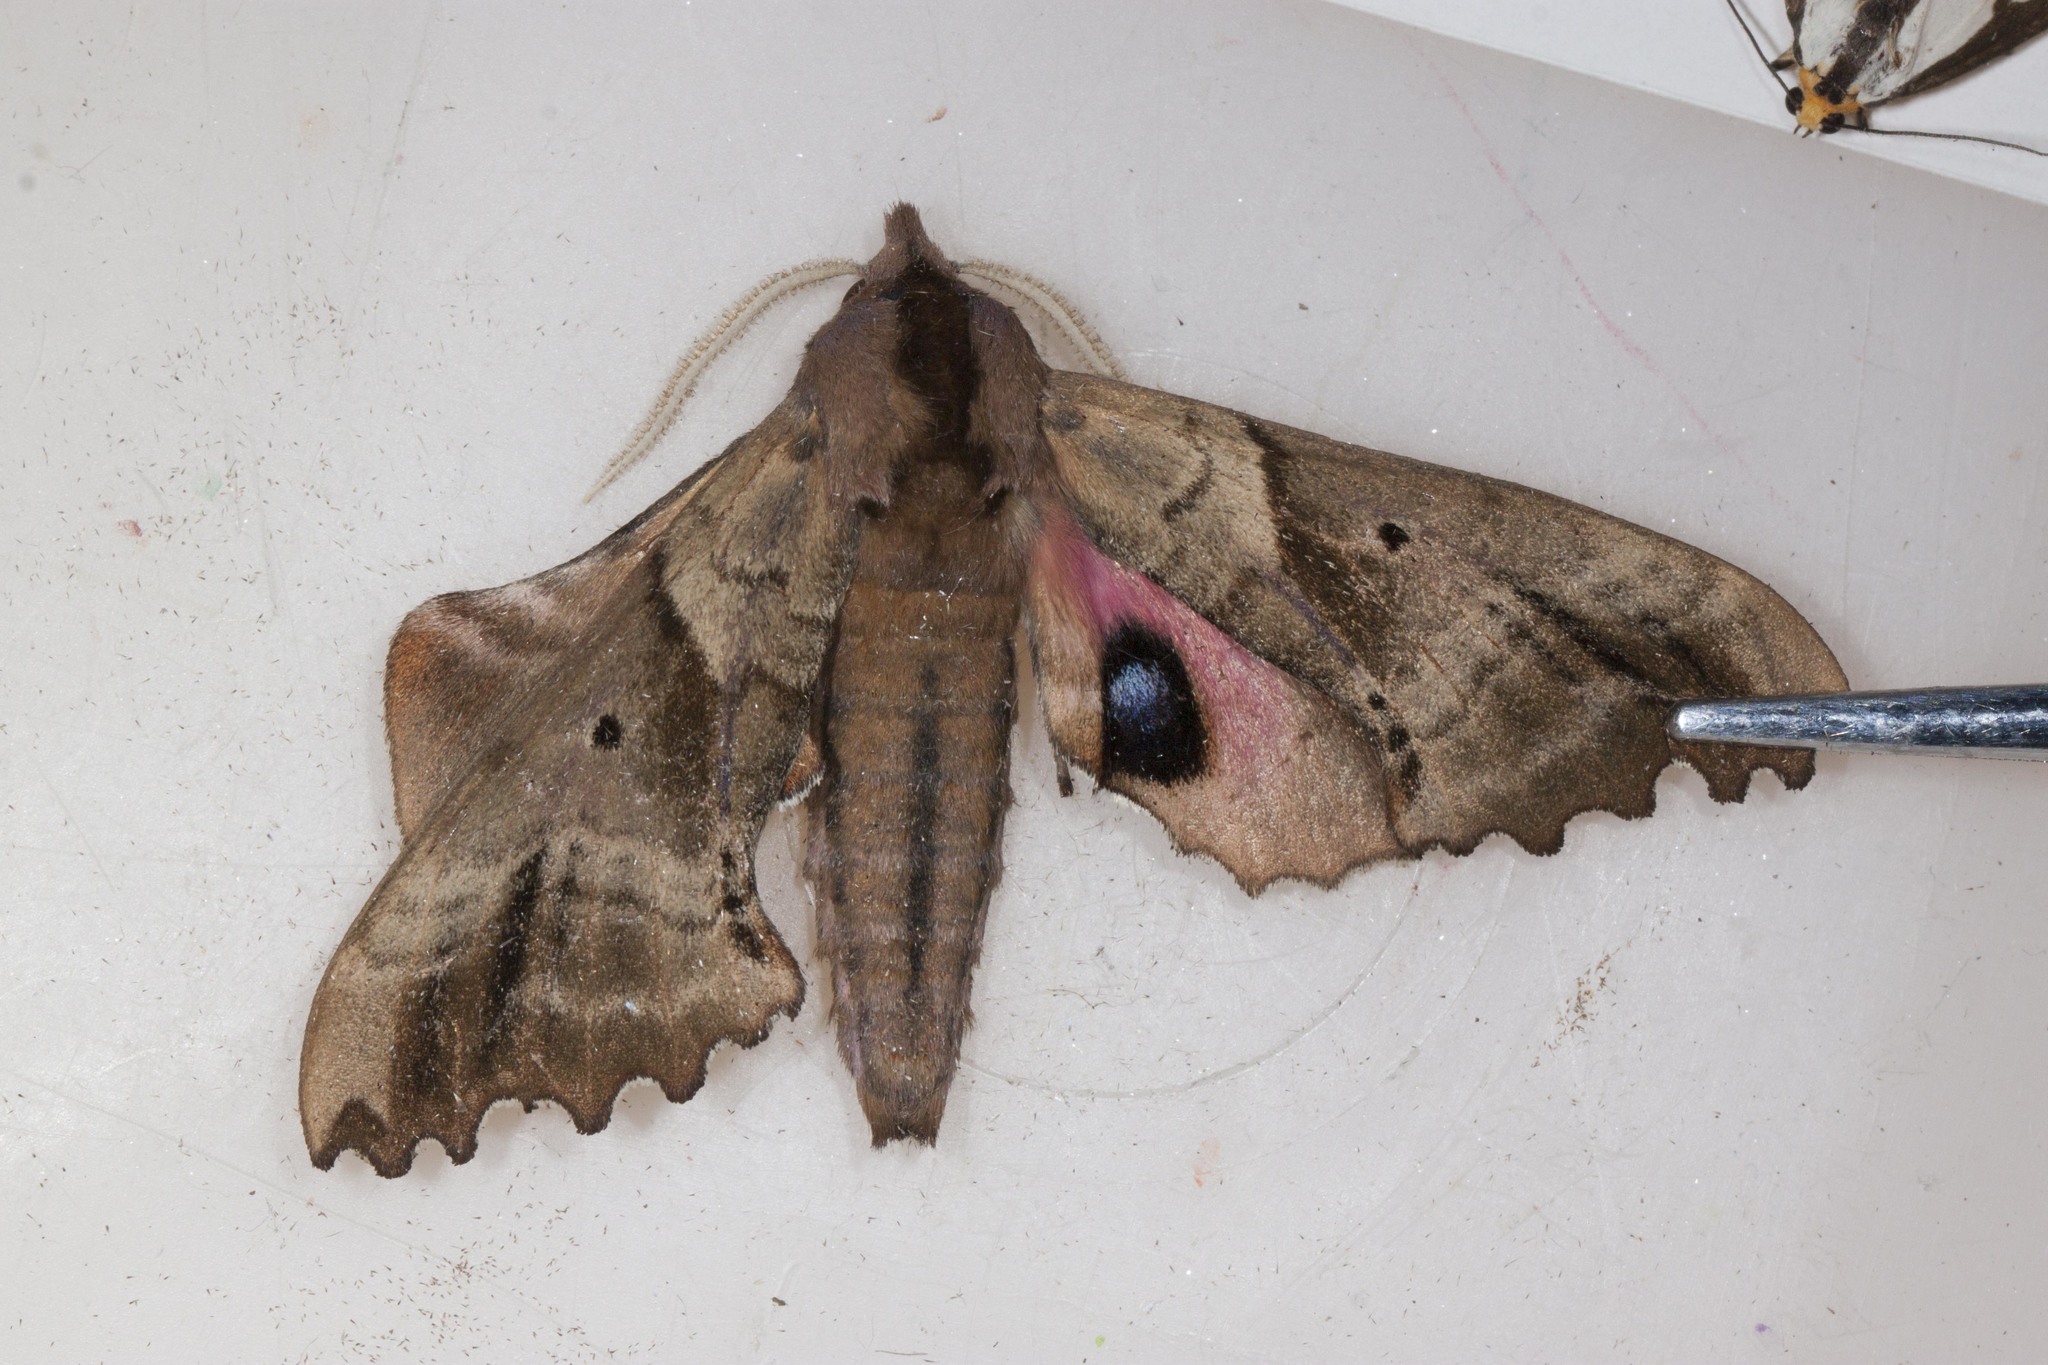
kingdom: Animalia
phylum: Arthropoda
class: Insecta
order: Lepidoptera
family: Sphingidae
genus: Paonias
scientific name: Paonias excaecata
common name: Blind-eyed sphinx
